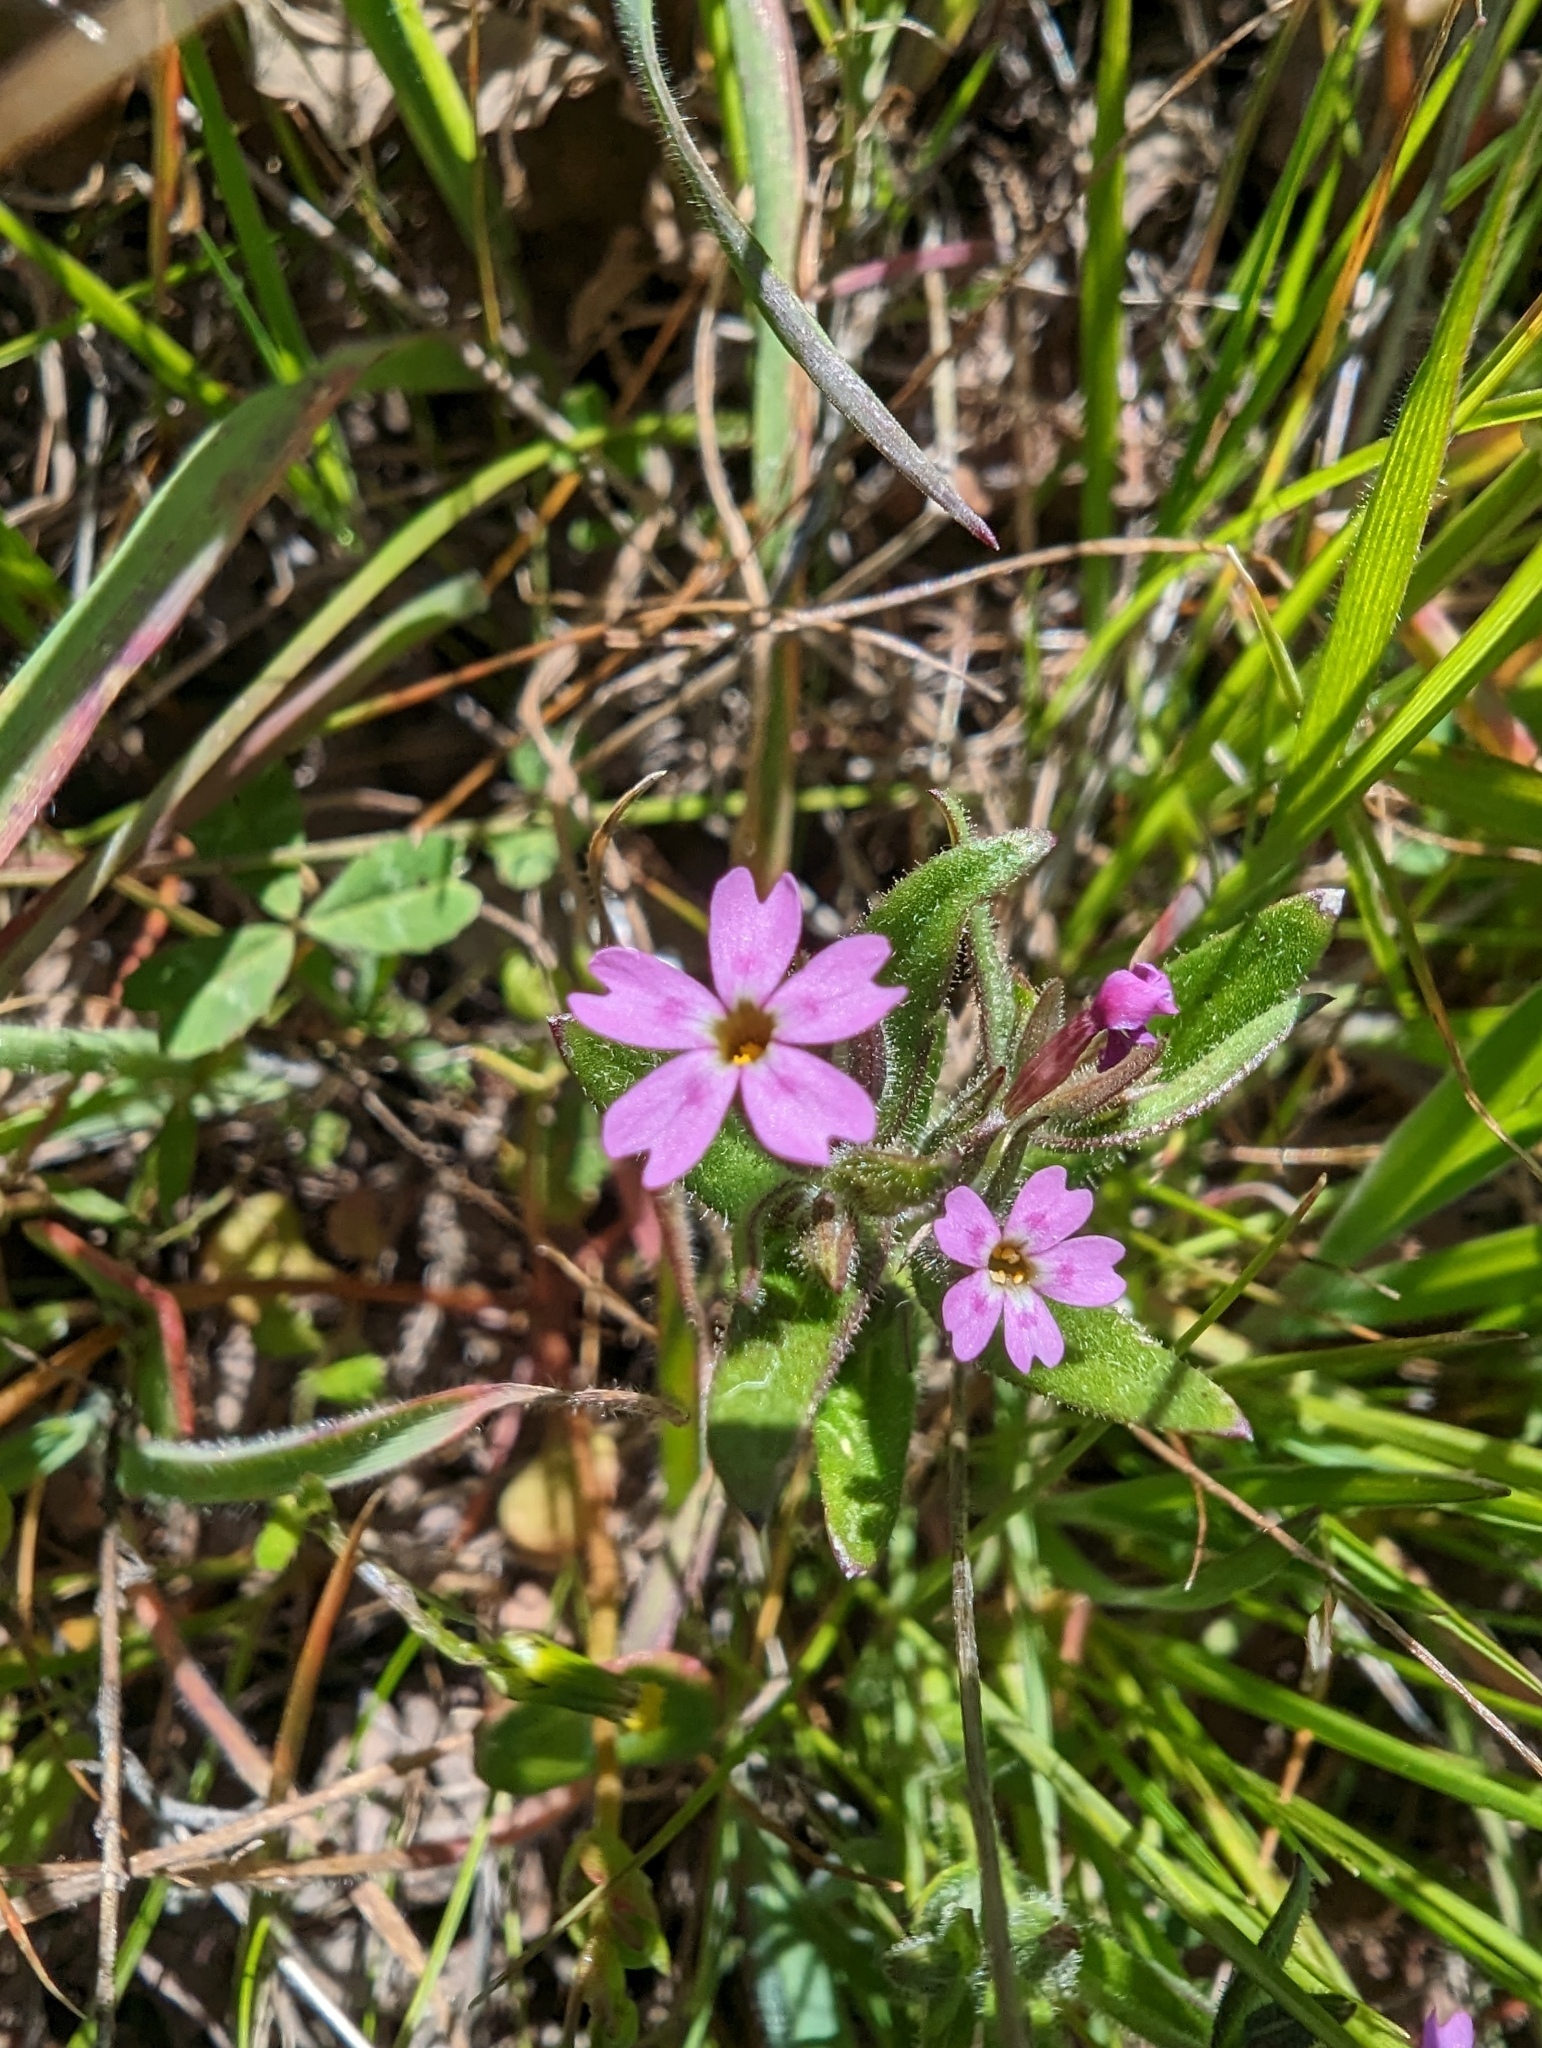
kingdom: Plantae
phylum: Tracheophyta
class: Magnoliopsida
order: Ericales
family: Polemoniaceae
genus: Phlox
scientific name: Phlox gracilis
